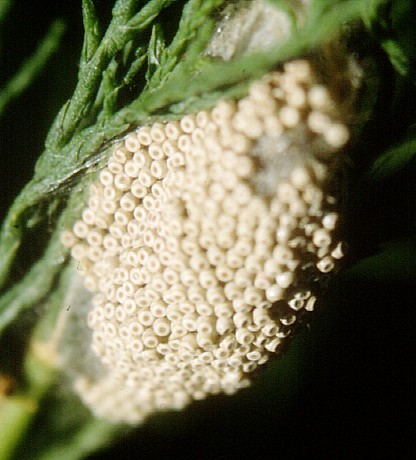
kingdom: Animalia
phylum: Arthropoda
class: Insecta
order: Lepidoptera
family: Erebidae
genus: Orgyia
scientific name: Orgyia antiqua
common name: Vapourer
